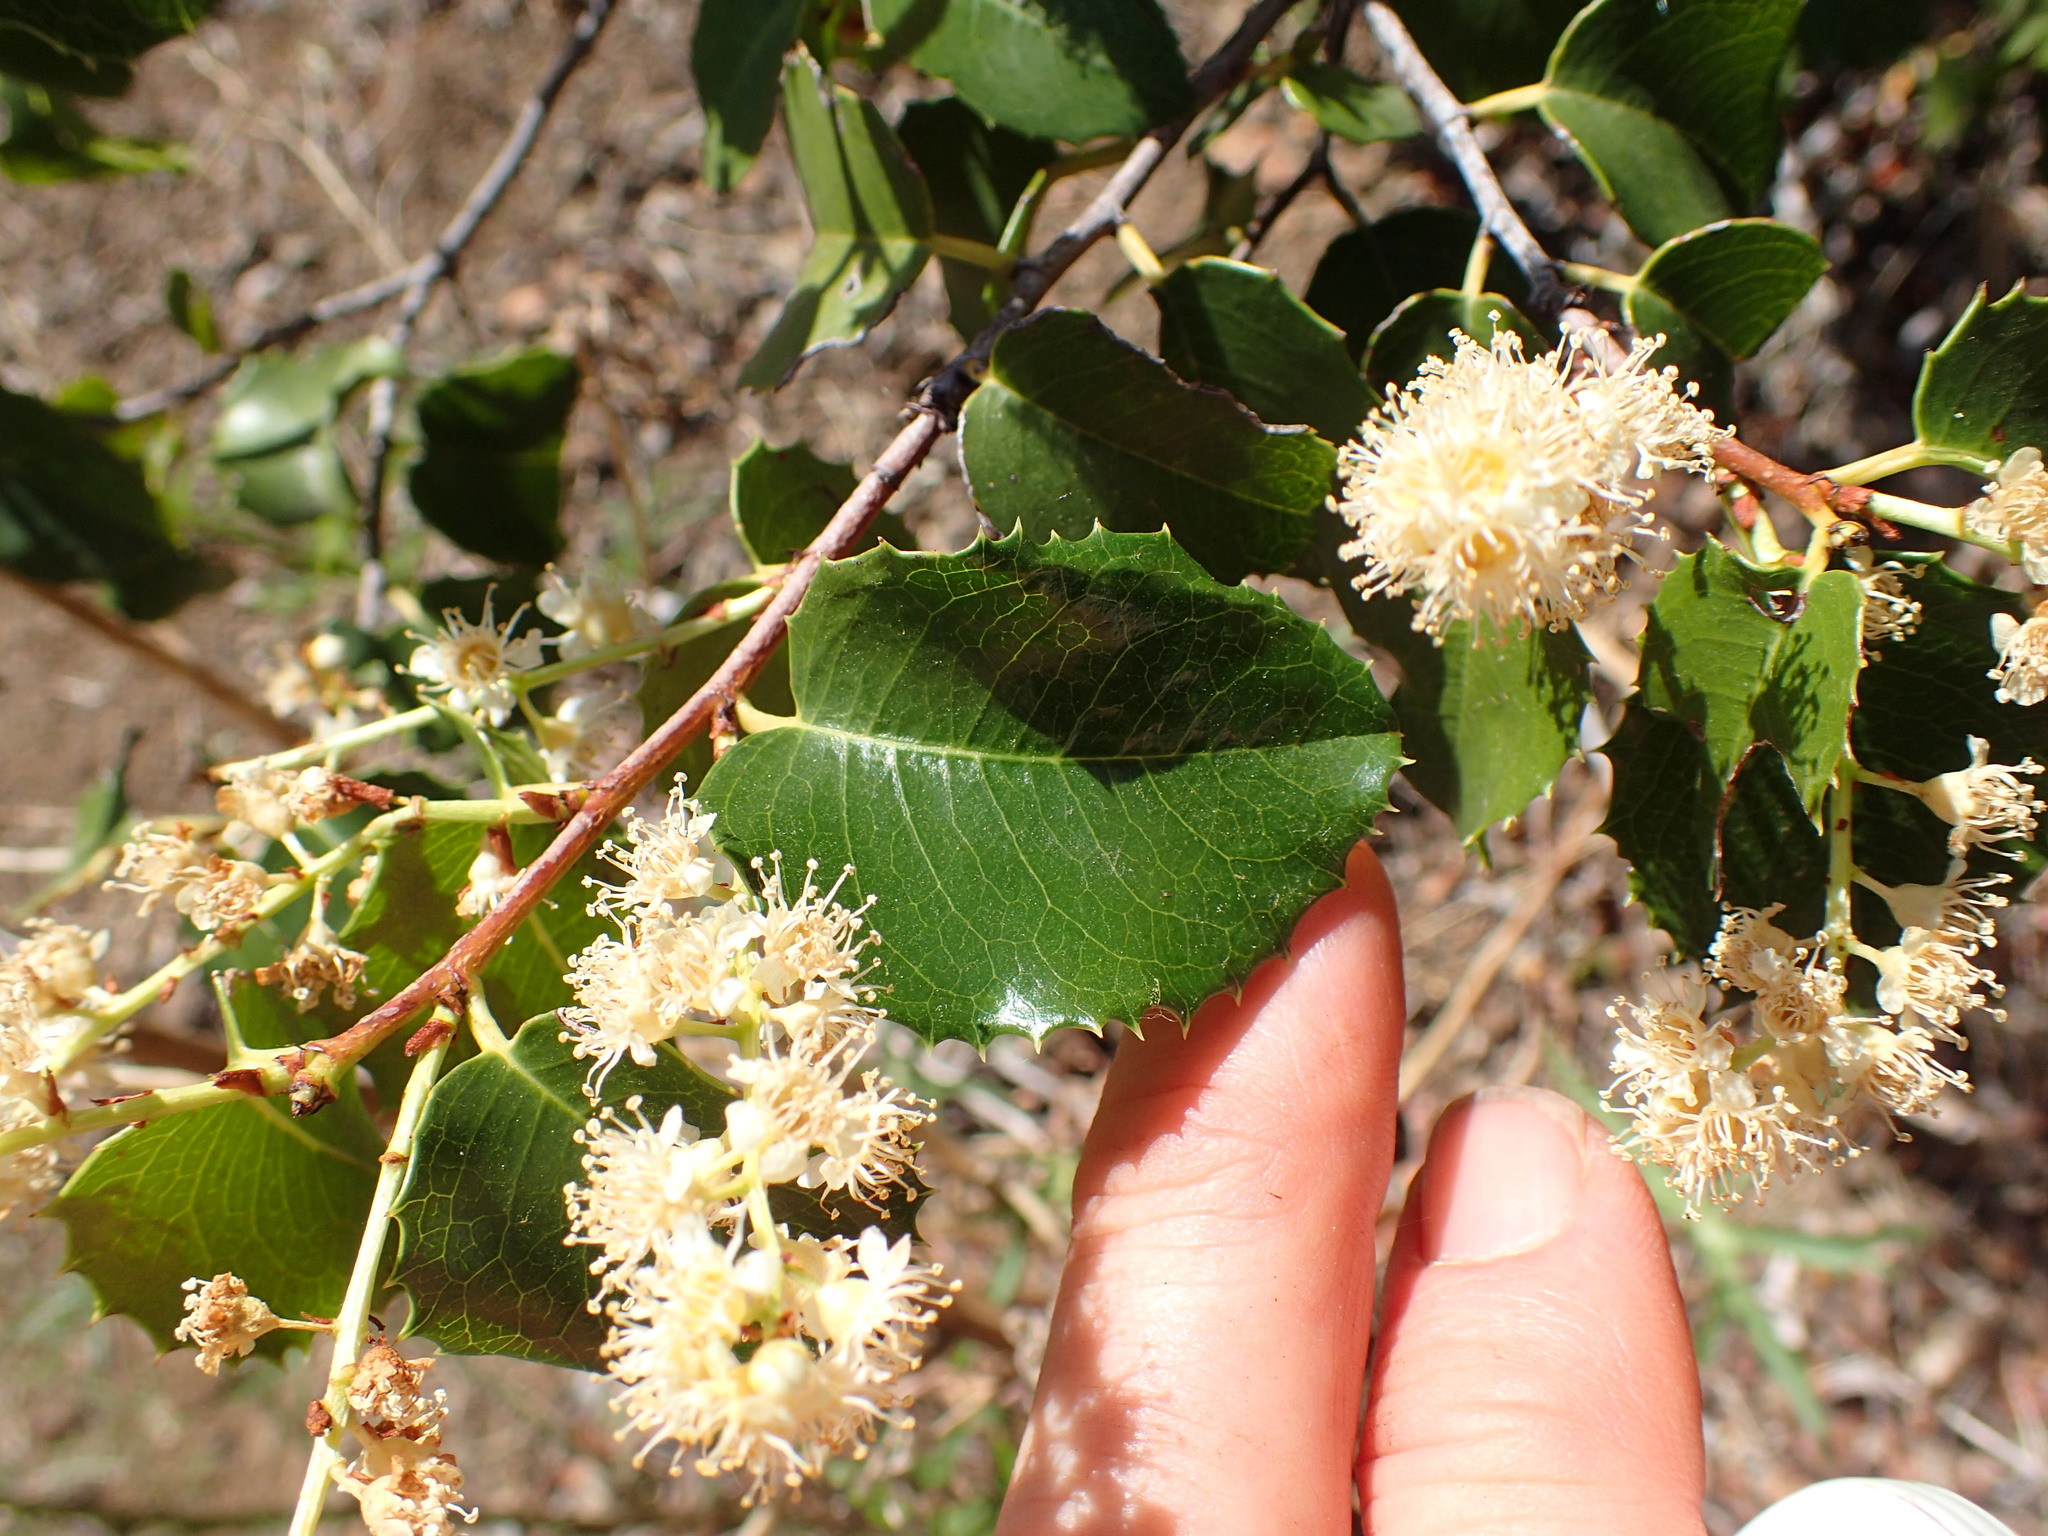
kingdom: Plantae
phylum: Tracheophyta
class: Magnoliopsida
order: Rosales
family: Rosaceae
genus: Prunus
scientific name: Prunus ilicifolia
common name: Hollyleaf cherry
